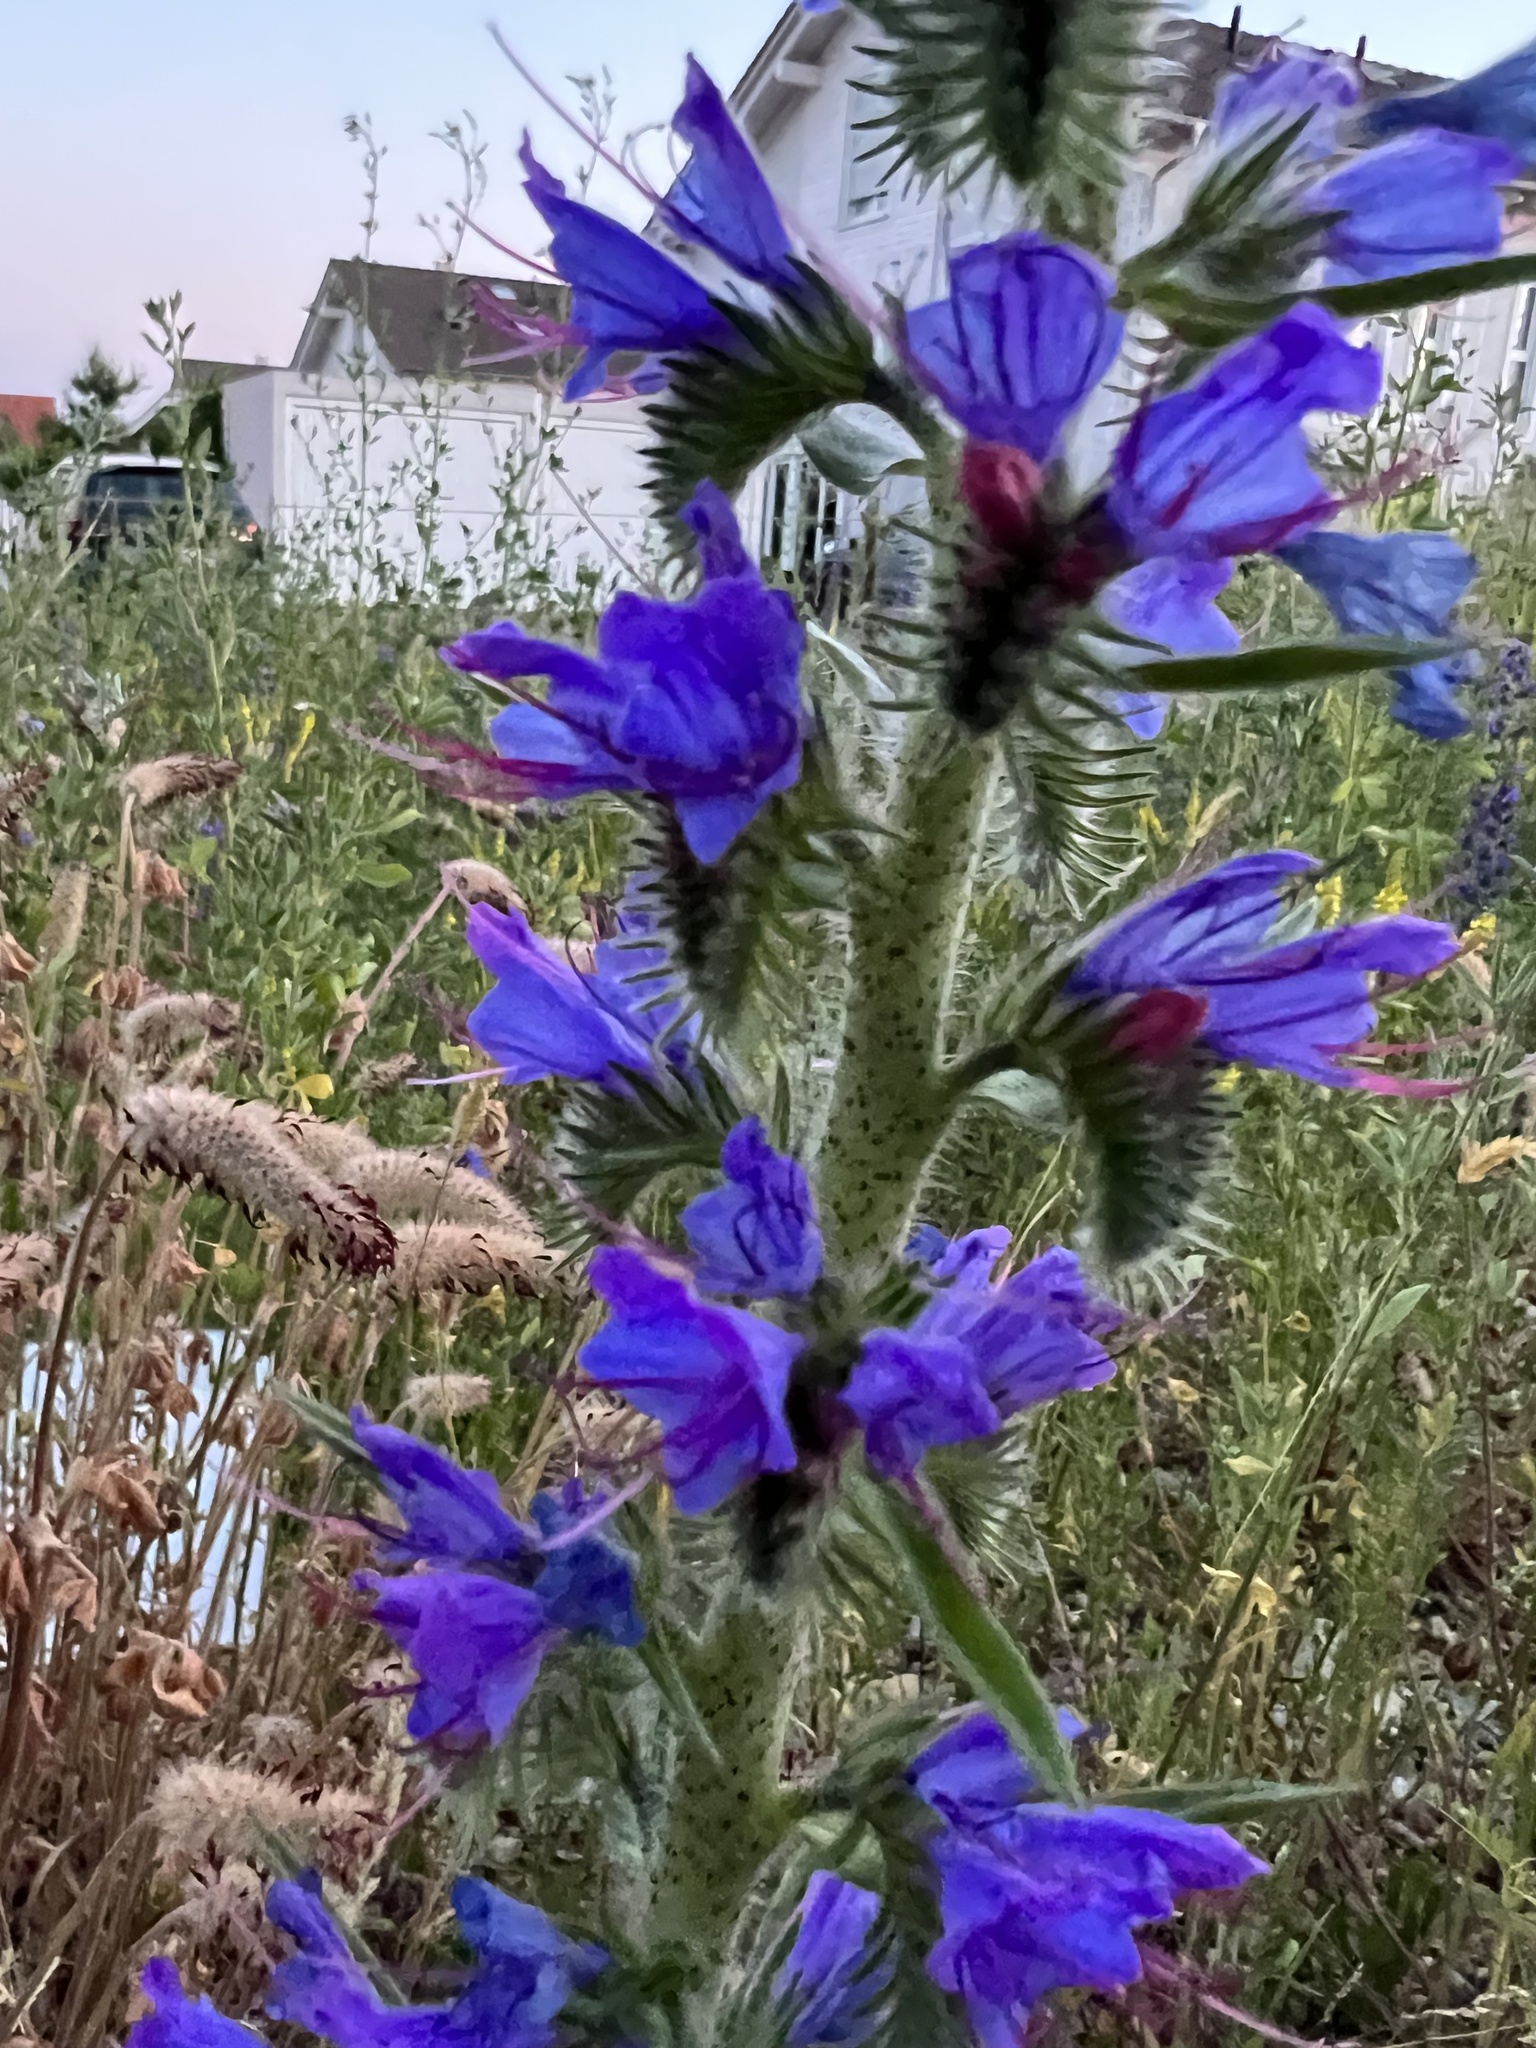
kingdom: Plantae
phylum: Tracheophyta
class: Magnoliopsida
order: Boraginales
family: Boraginaceae
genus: Echium
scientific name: Echium vulgare
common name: Common viper's bugloss
